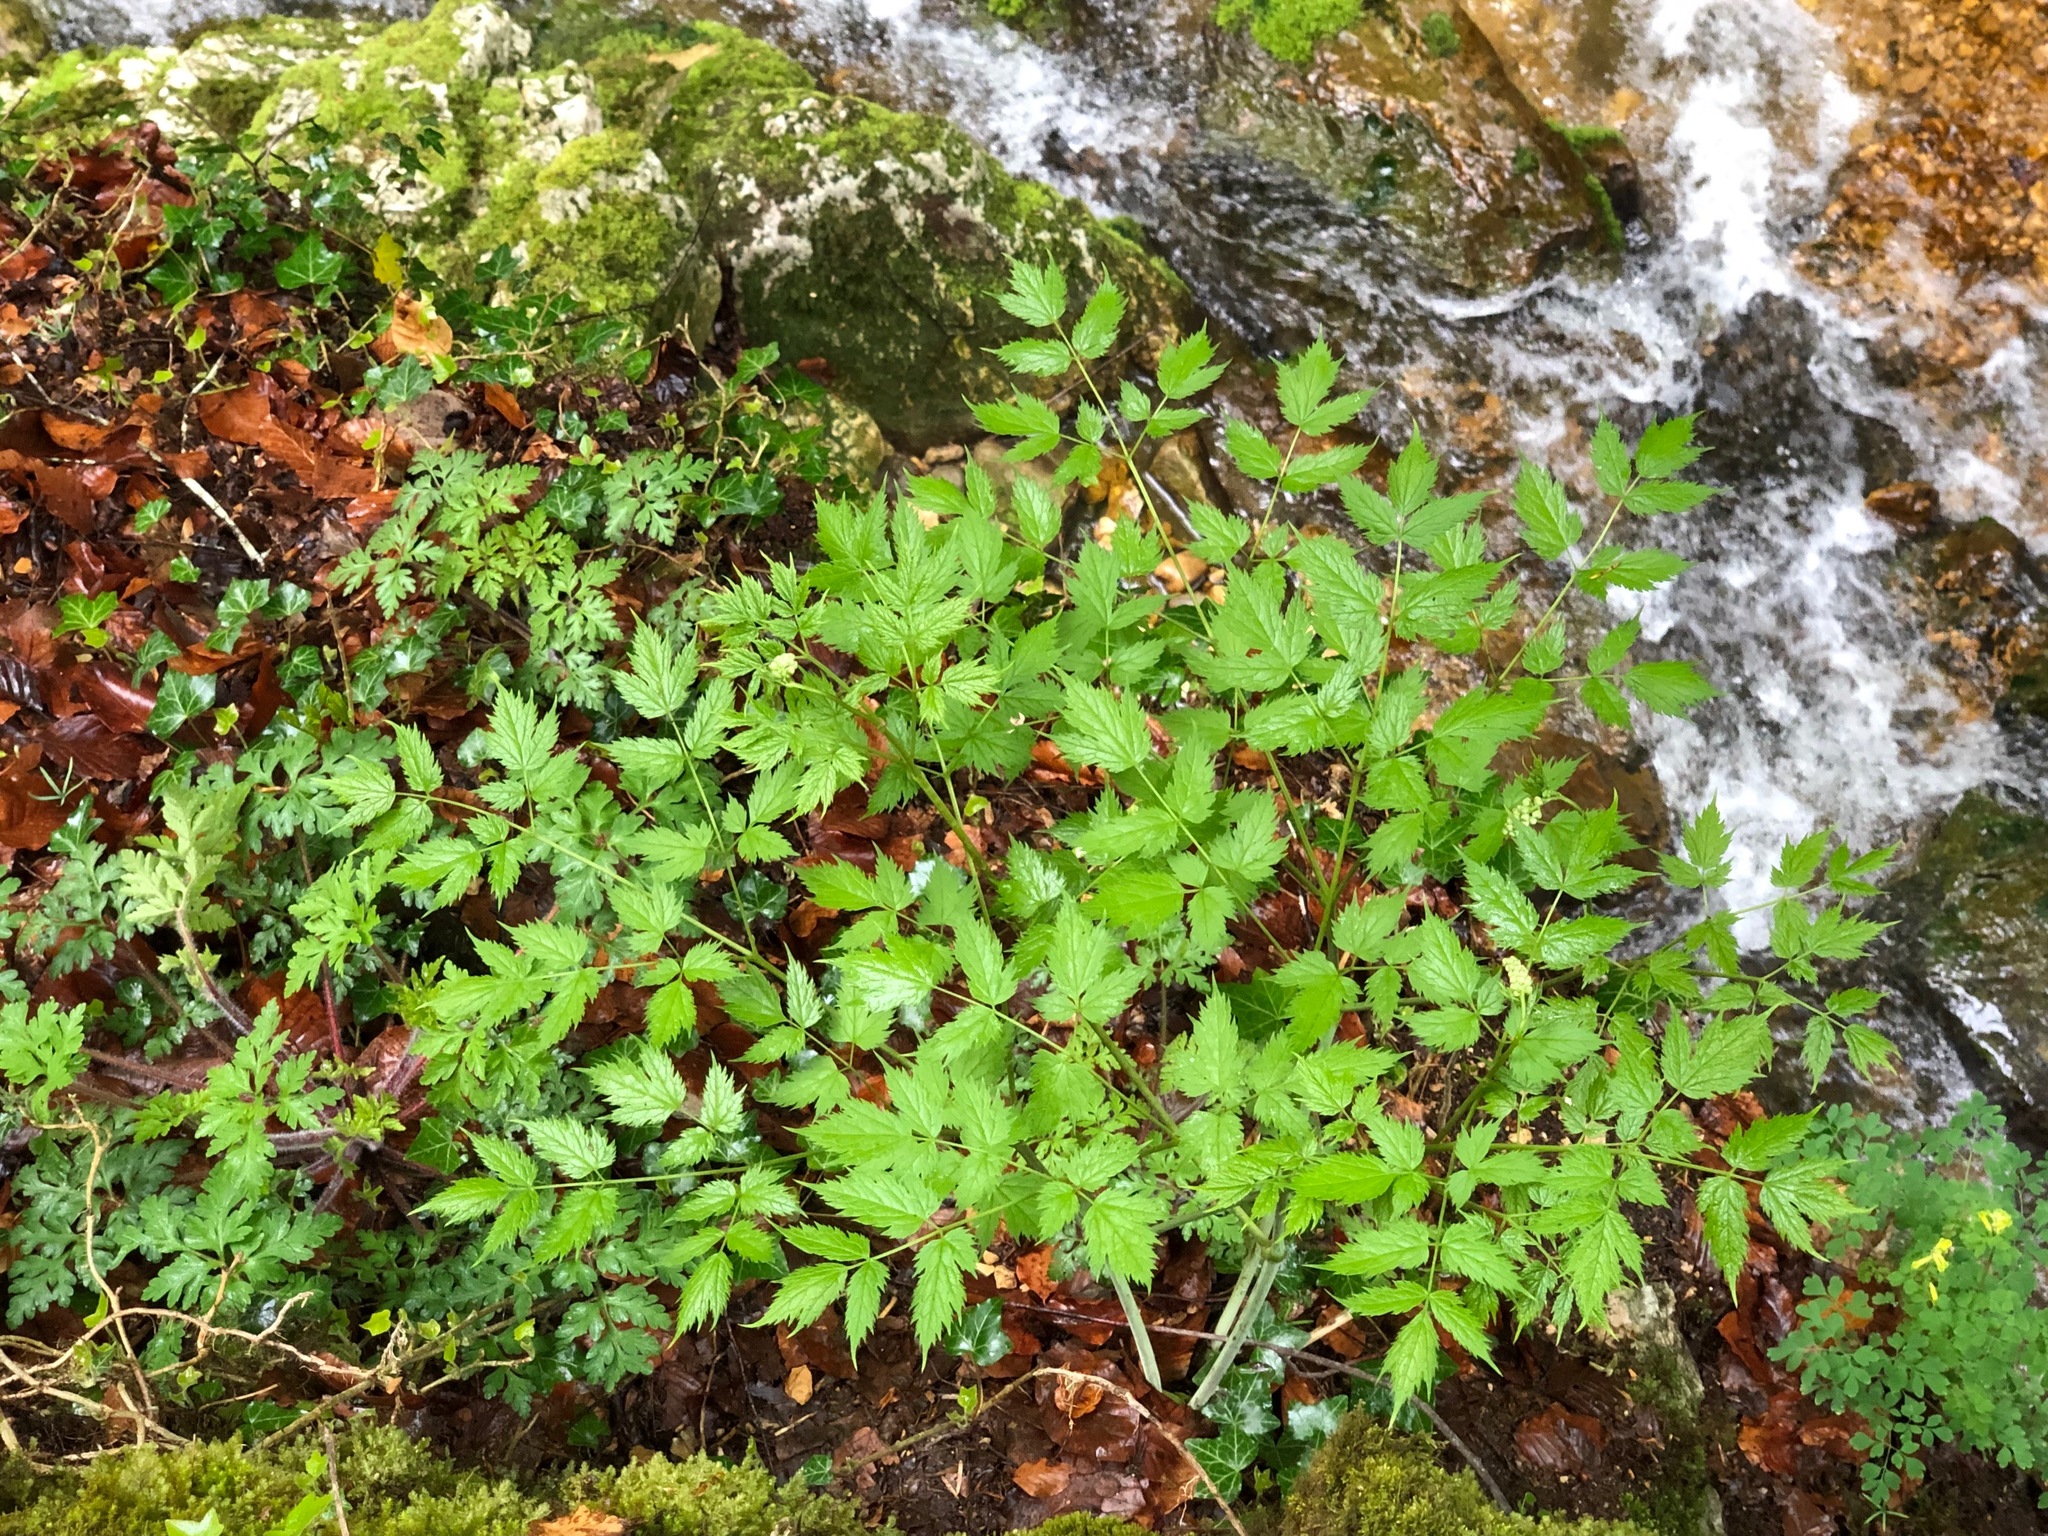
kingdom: Plantae
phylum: Tracheophyta
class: Magnoliopsida
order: Ranunculales
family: Ranunculaceae
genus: Actaea
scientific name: Actaea spicata
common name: Baneberry
